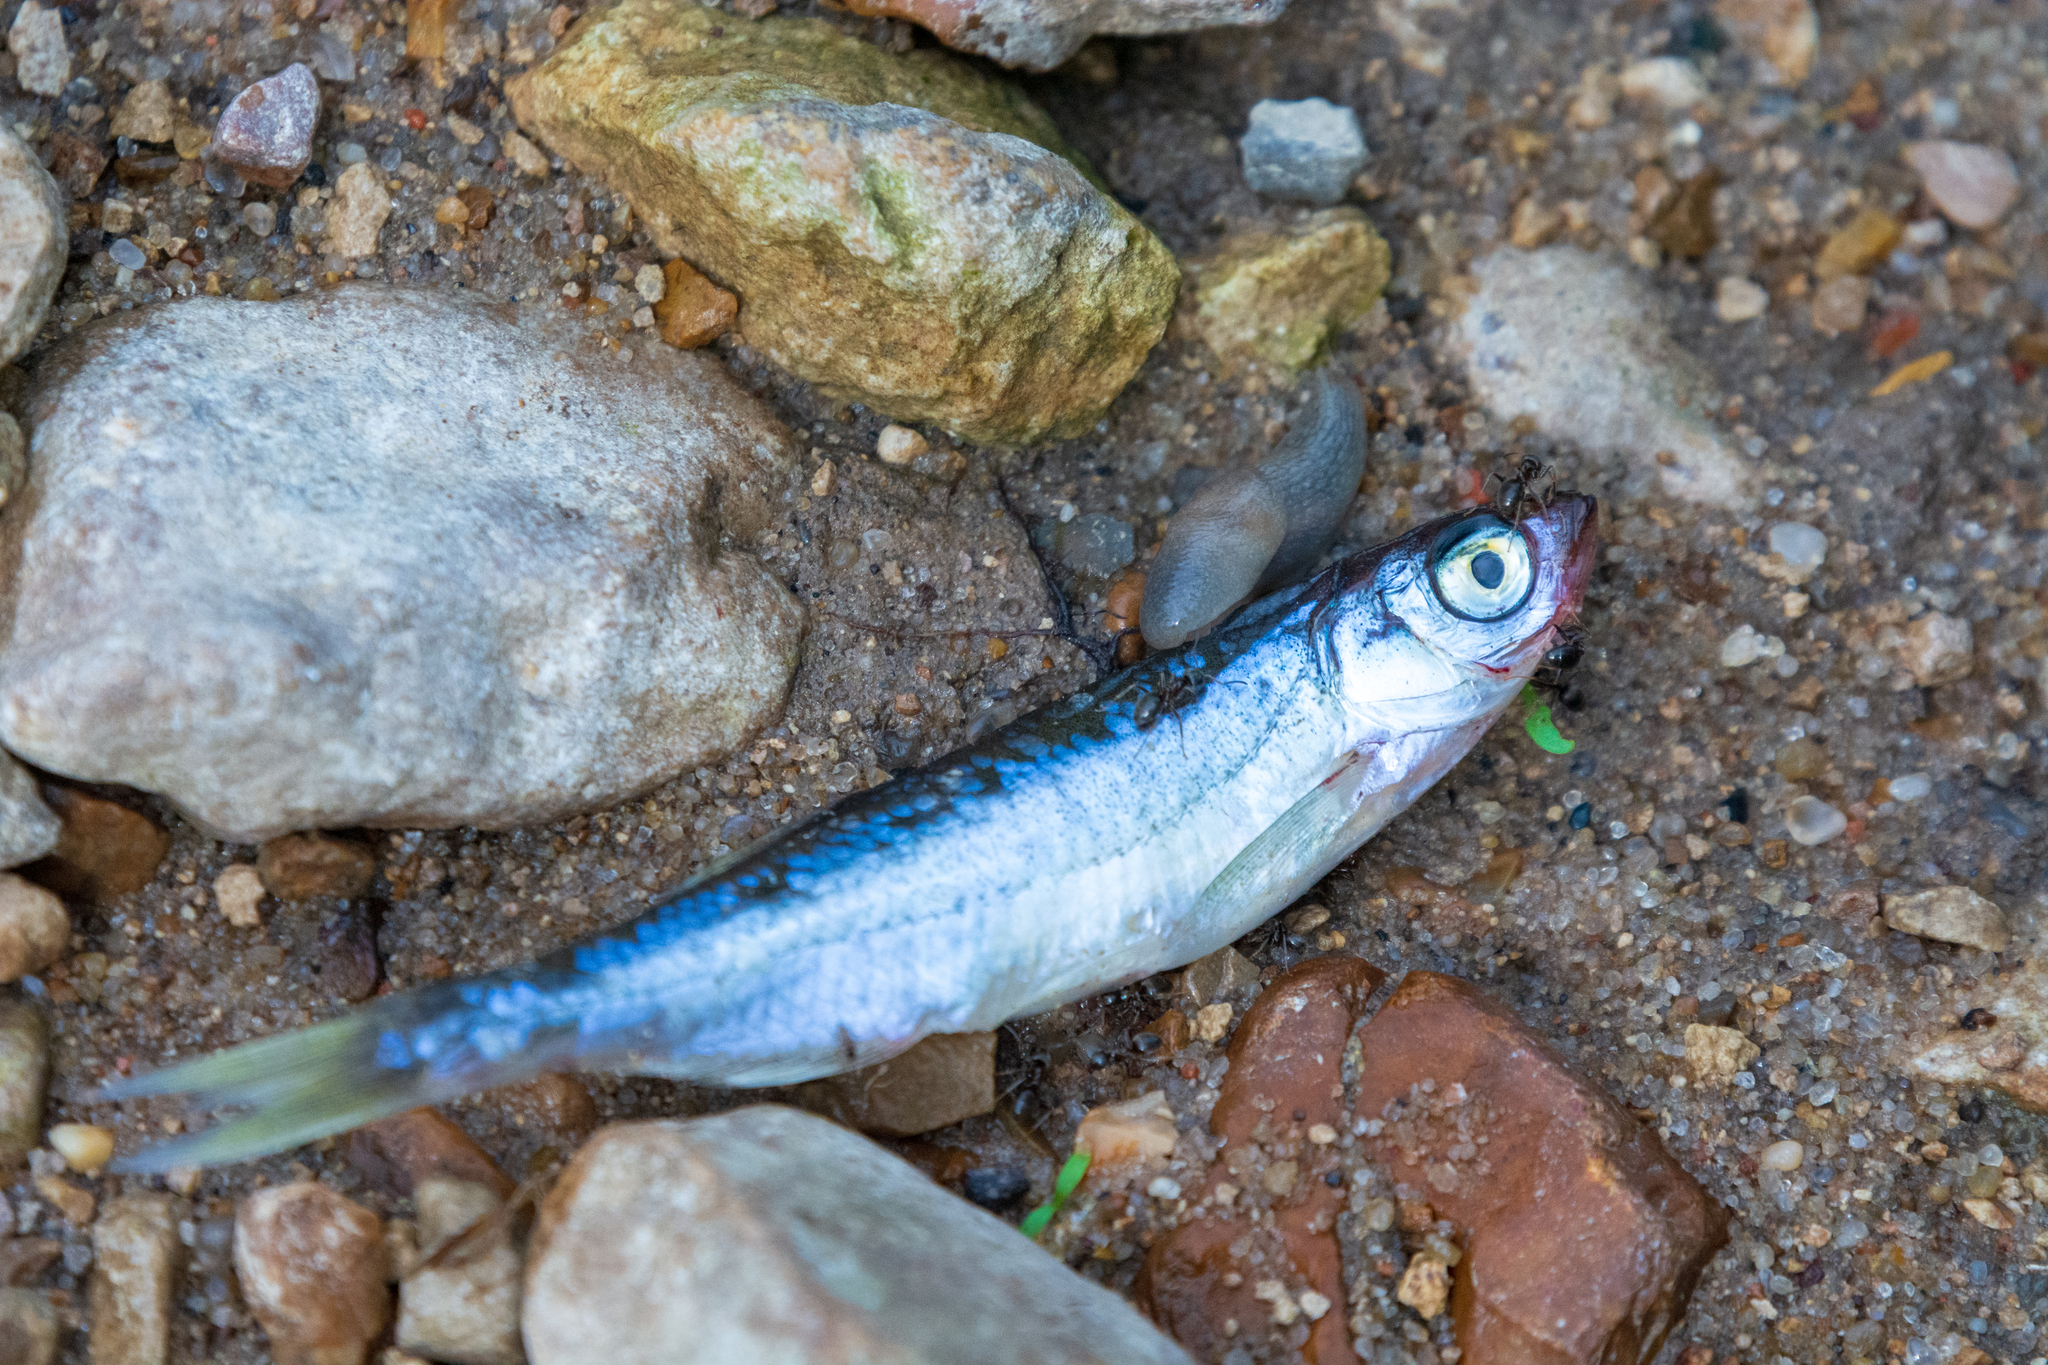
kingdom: Animalia
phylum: Chordata
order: Cypriniformes
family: Cyprinidae
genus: Alburnus
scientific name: Alburnus alburnus
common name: Bleak
